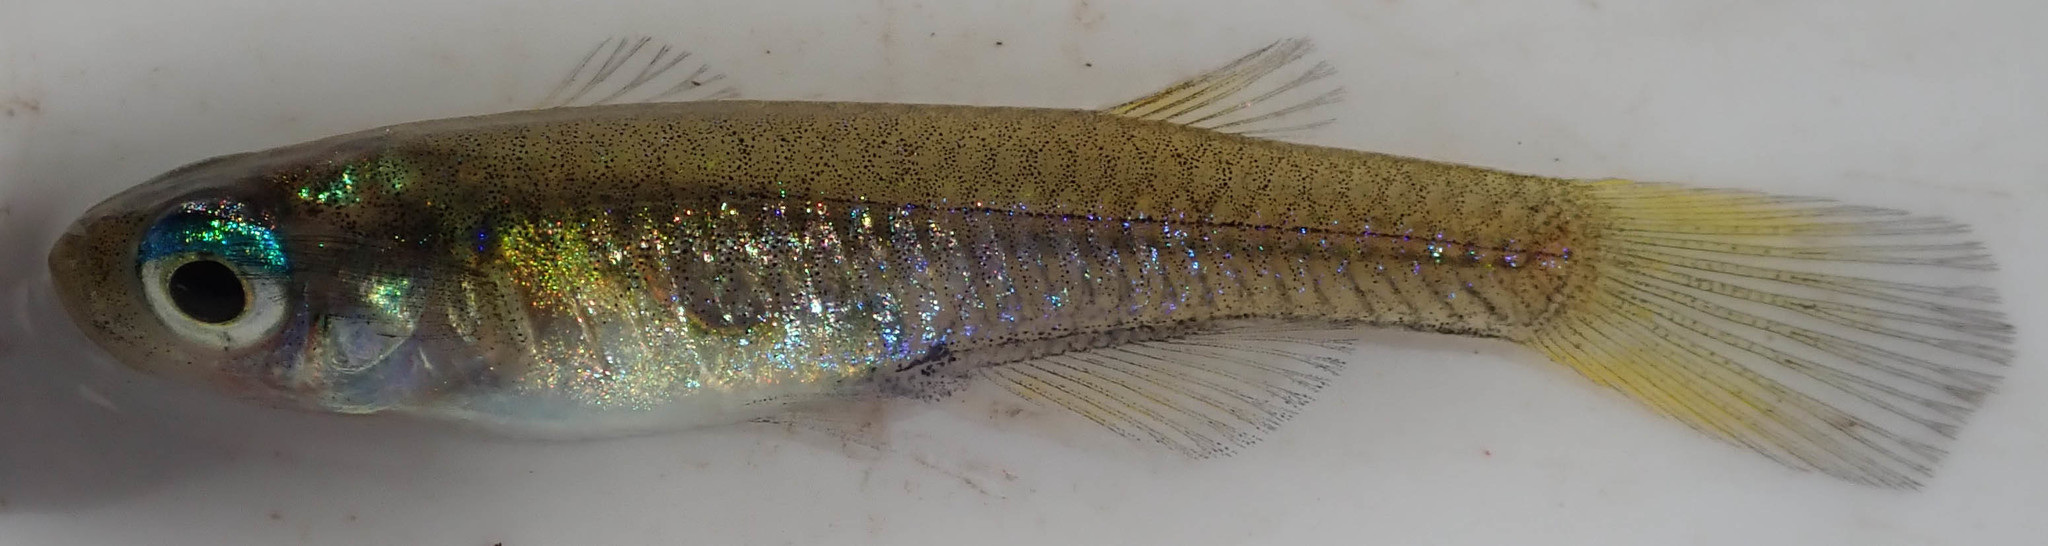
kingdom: Animalia
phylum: Chordata
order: Cyprinodontiformes
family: Poeciliidae
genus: Micropanchax
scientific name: Micropanchax johnstoni
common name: Johnston's topminnow
